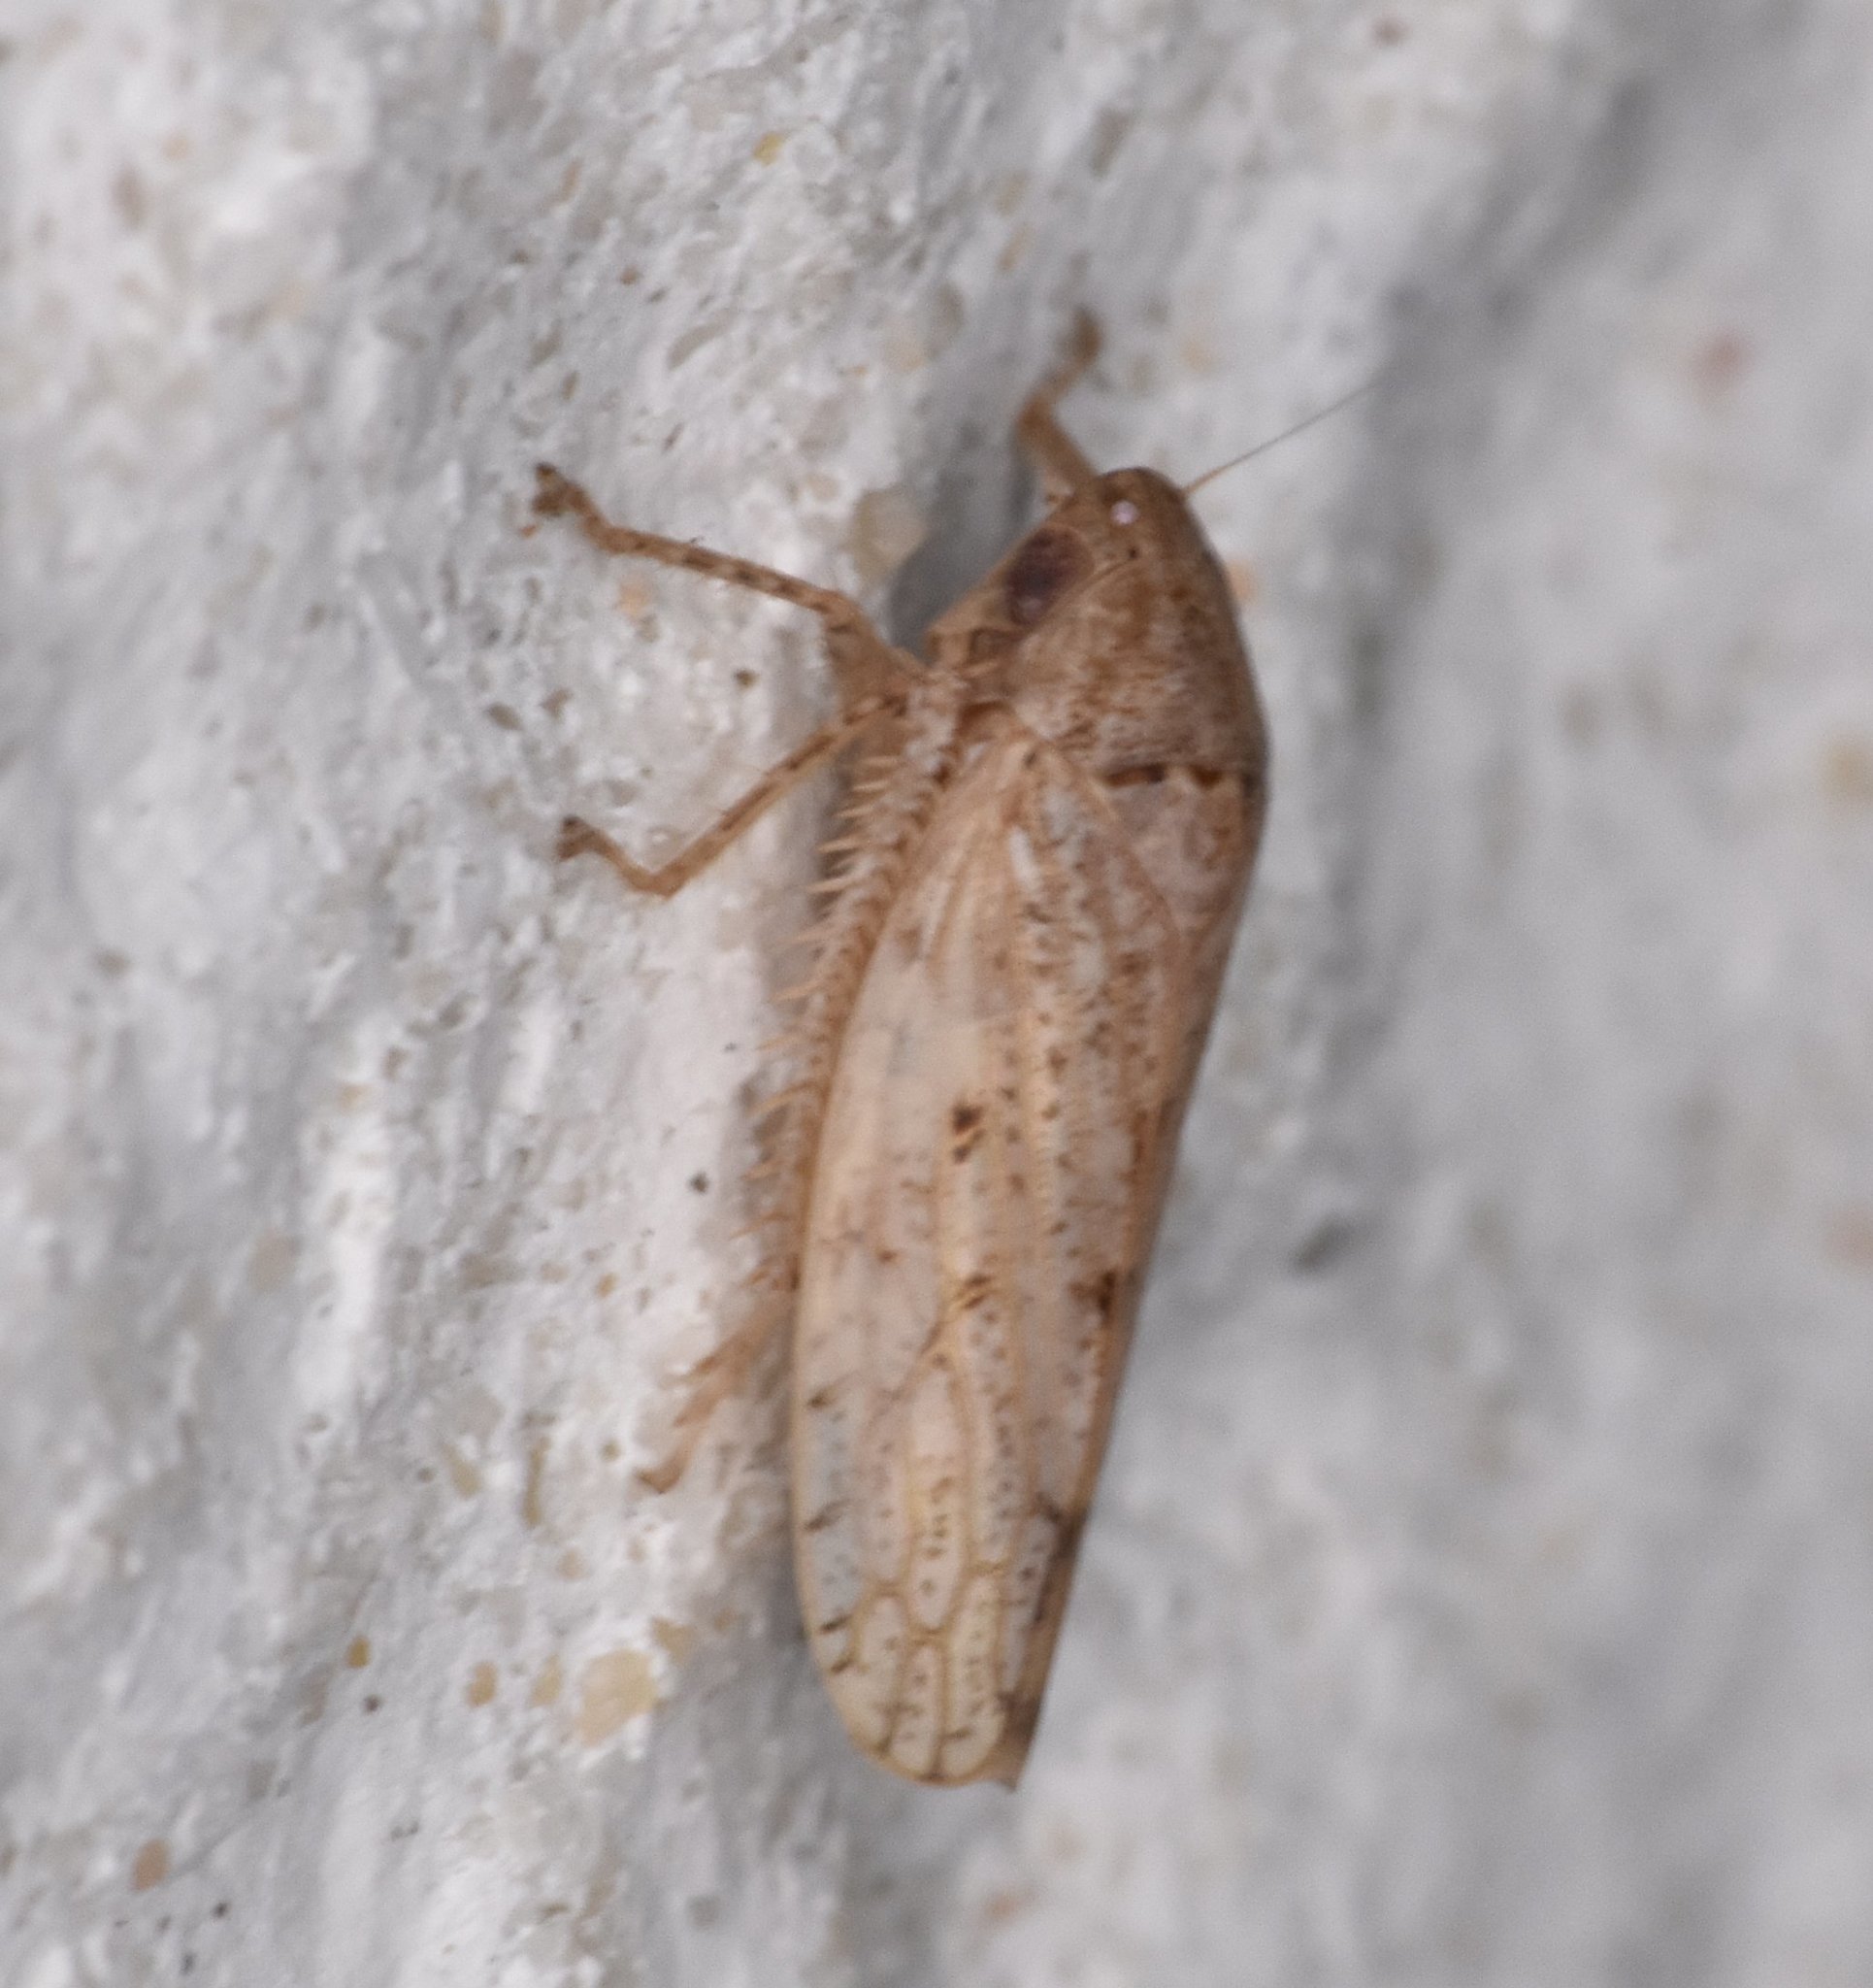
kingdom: Animalia
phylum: Arthropoda
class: Insecta
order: Hemiptera
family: Cicadellidae
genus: Curtara
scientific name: Curtara insularis
